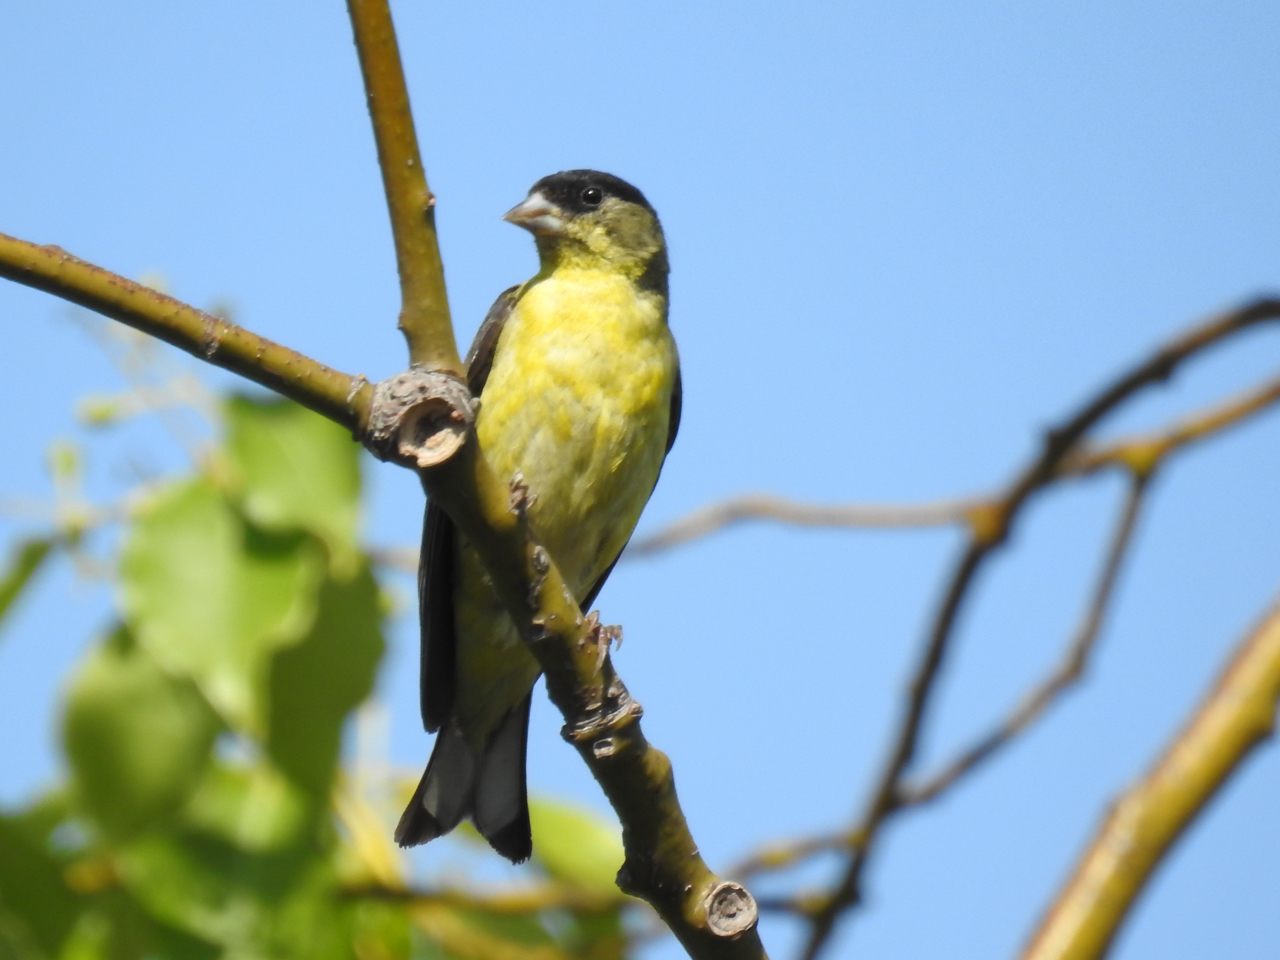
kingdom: Animalia
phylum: Chordata
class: Aves
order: Passeriformes
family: Fringillidae
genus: Spinus
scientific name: Spinus psaltria
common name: Lesser goldfinch
